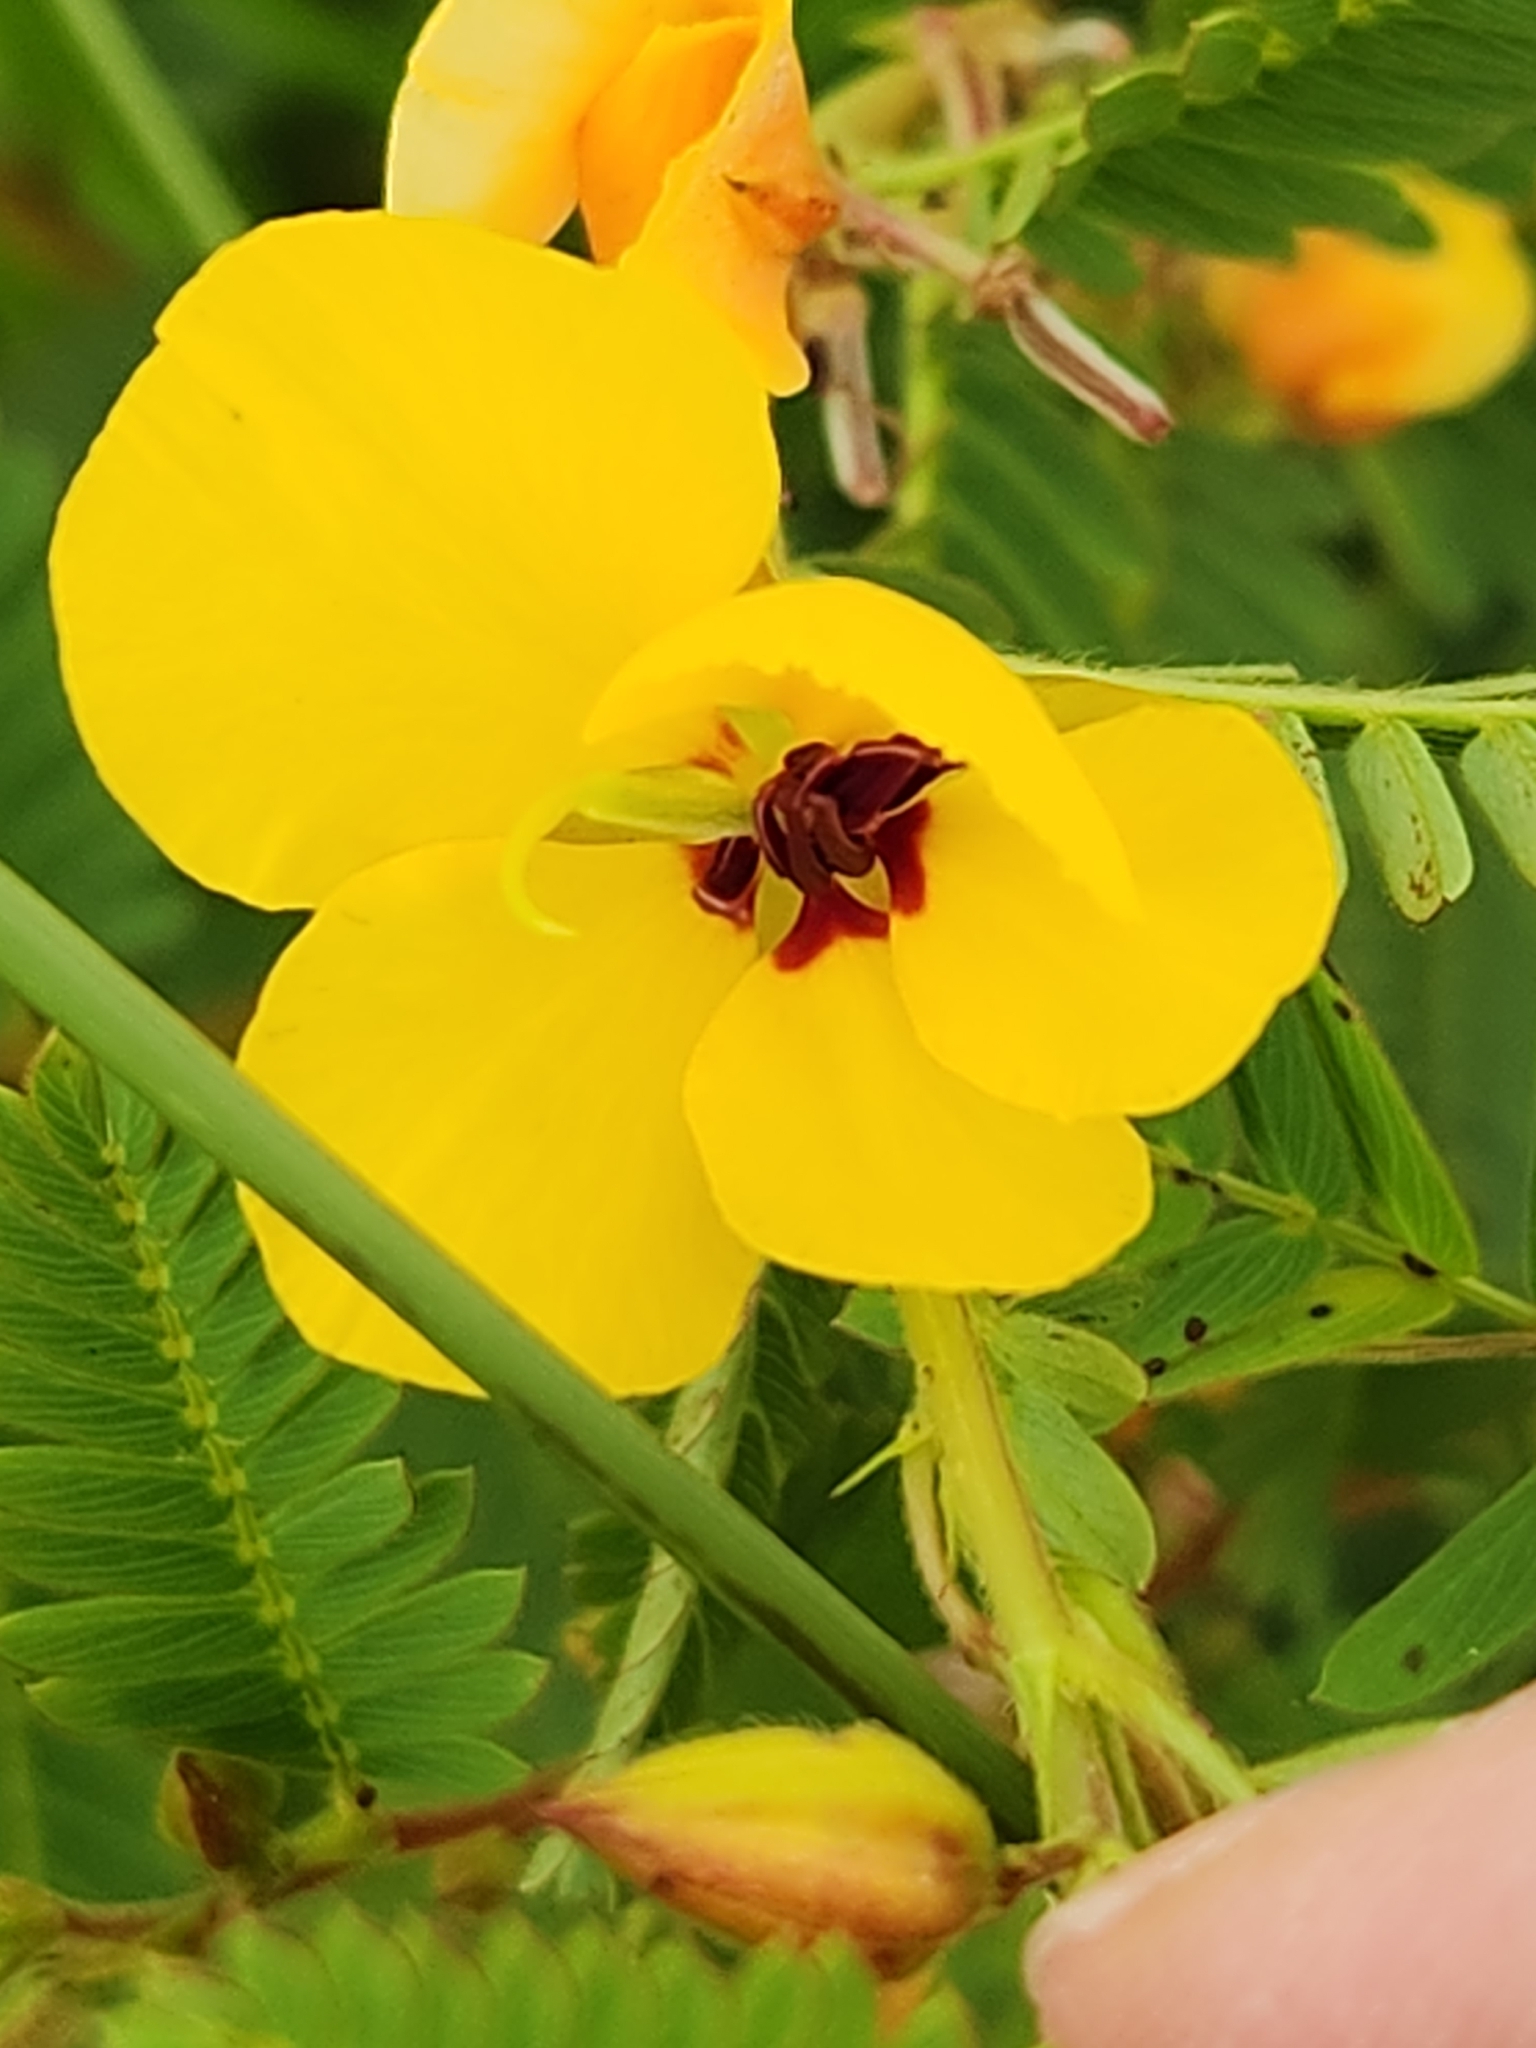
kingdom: Plantae
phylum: Tracheophyta
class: Magnoliopsida
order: Fabales
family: Fabaceae
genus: Chamaecrista
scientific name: Chamaecrista fasciculata
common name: Golden cassia
